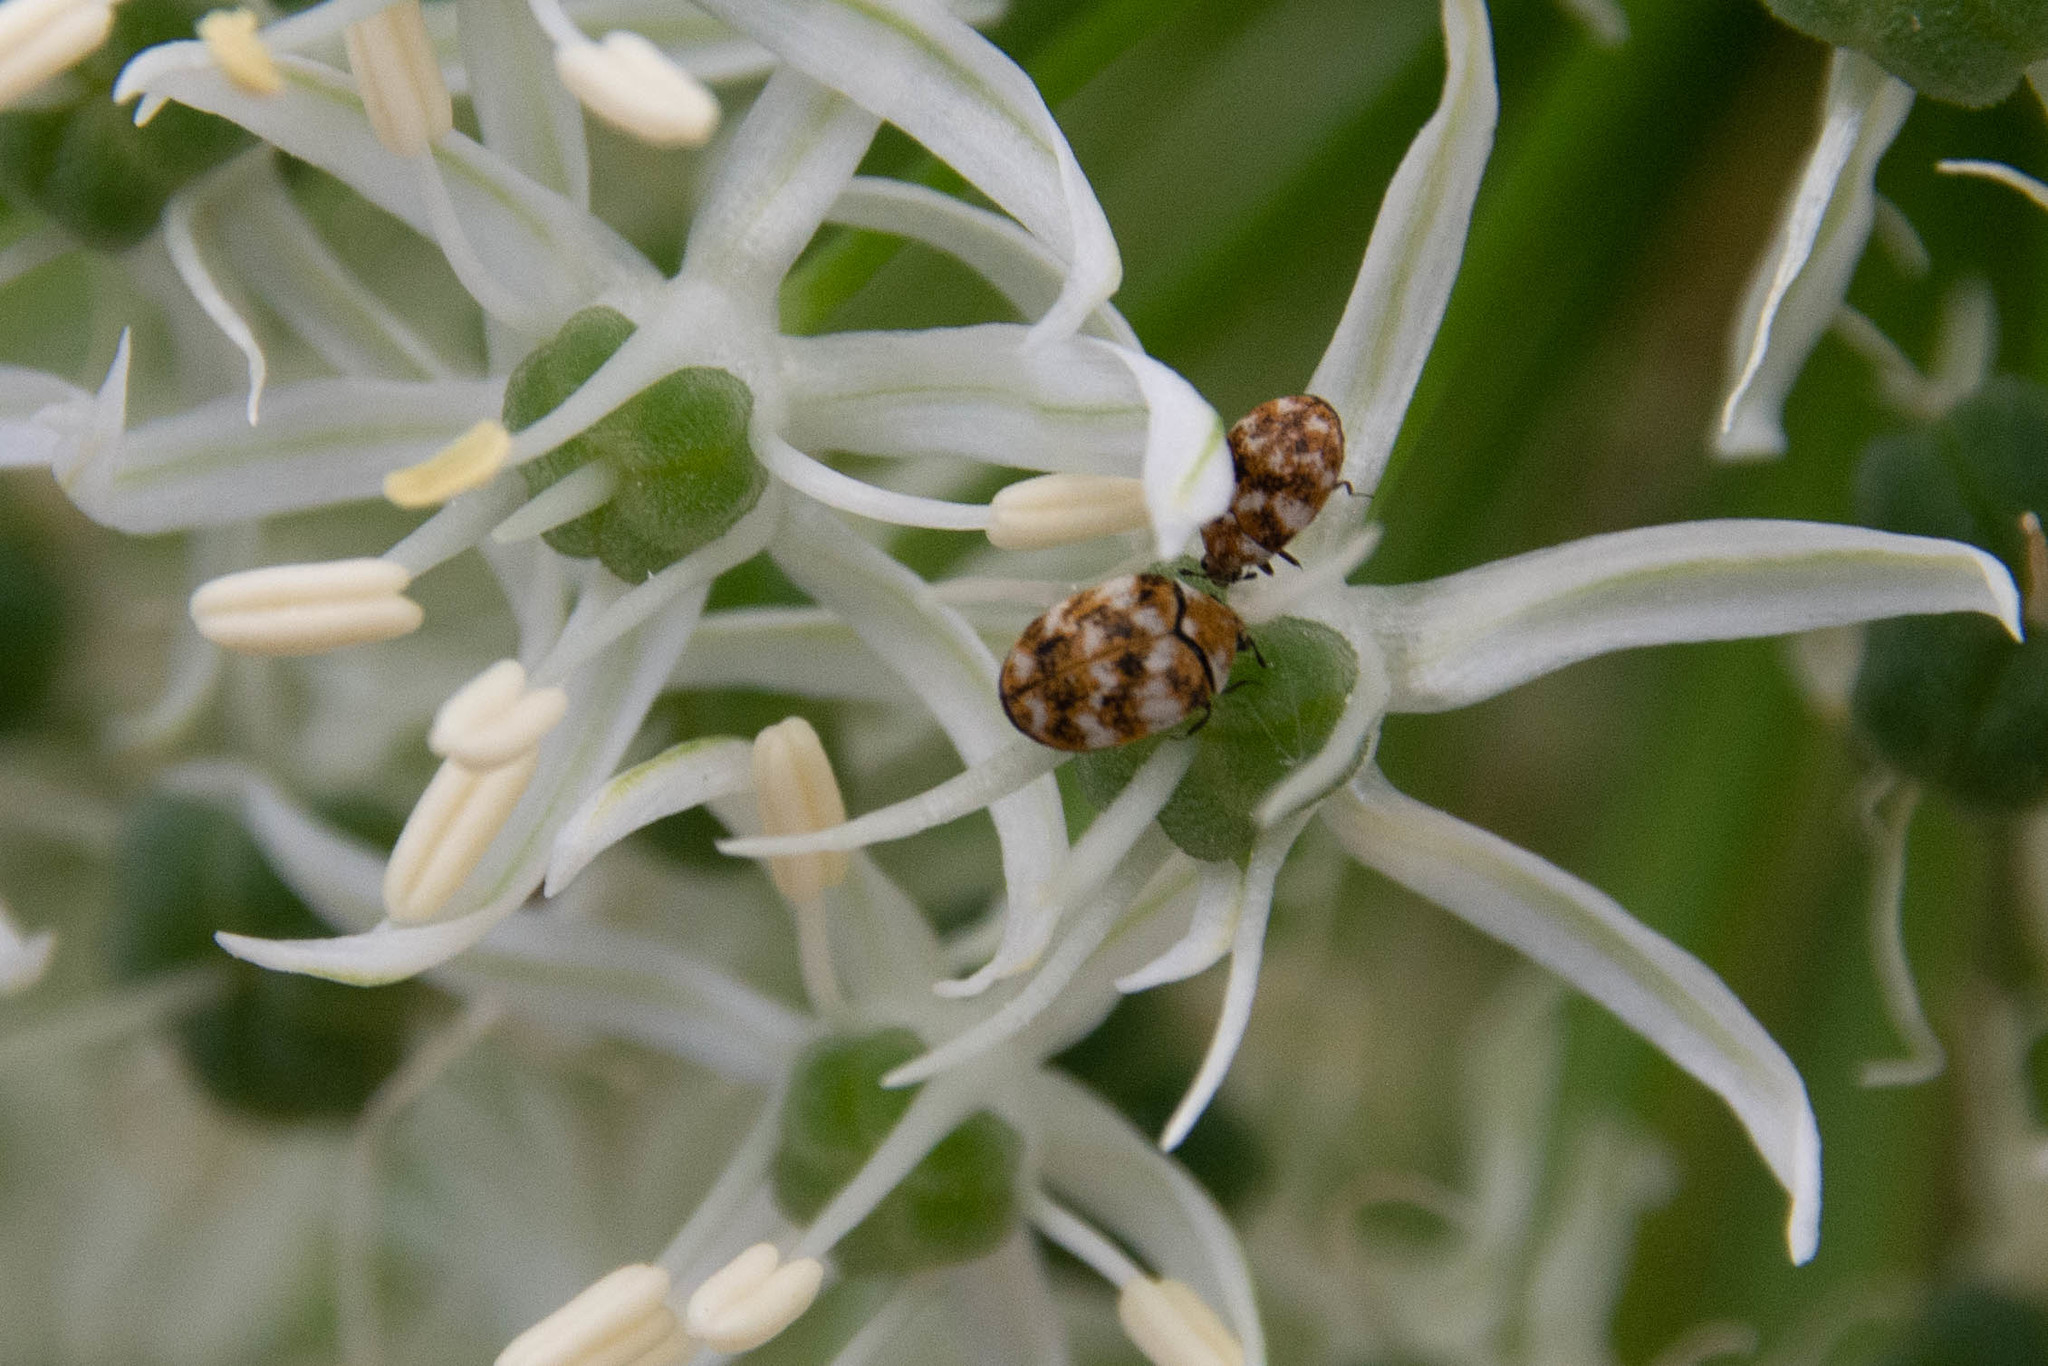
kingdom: Animalia
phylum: Arthropoda
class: Insecta
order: Coleoptera
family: Dermestidae
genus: Anthrenus
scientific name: Anthrenus verbasci
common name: Varied carpet beetle
